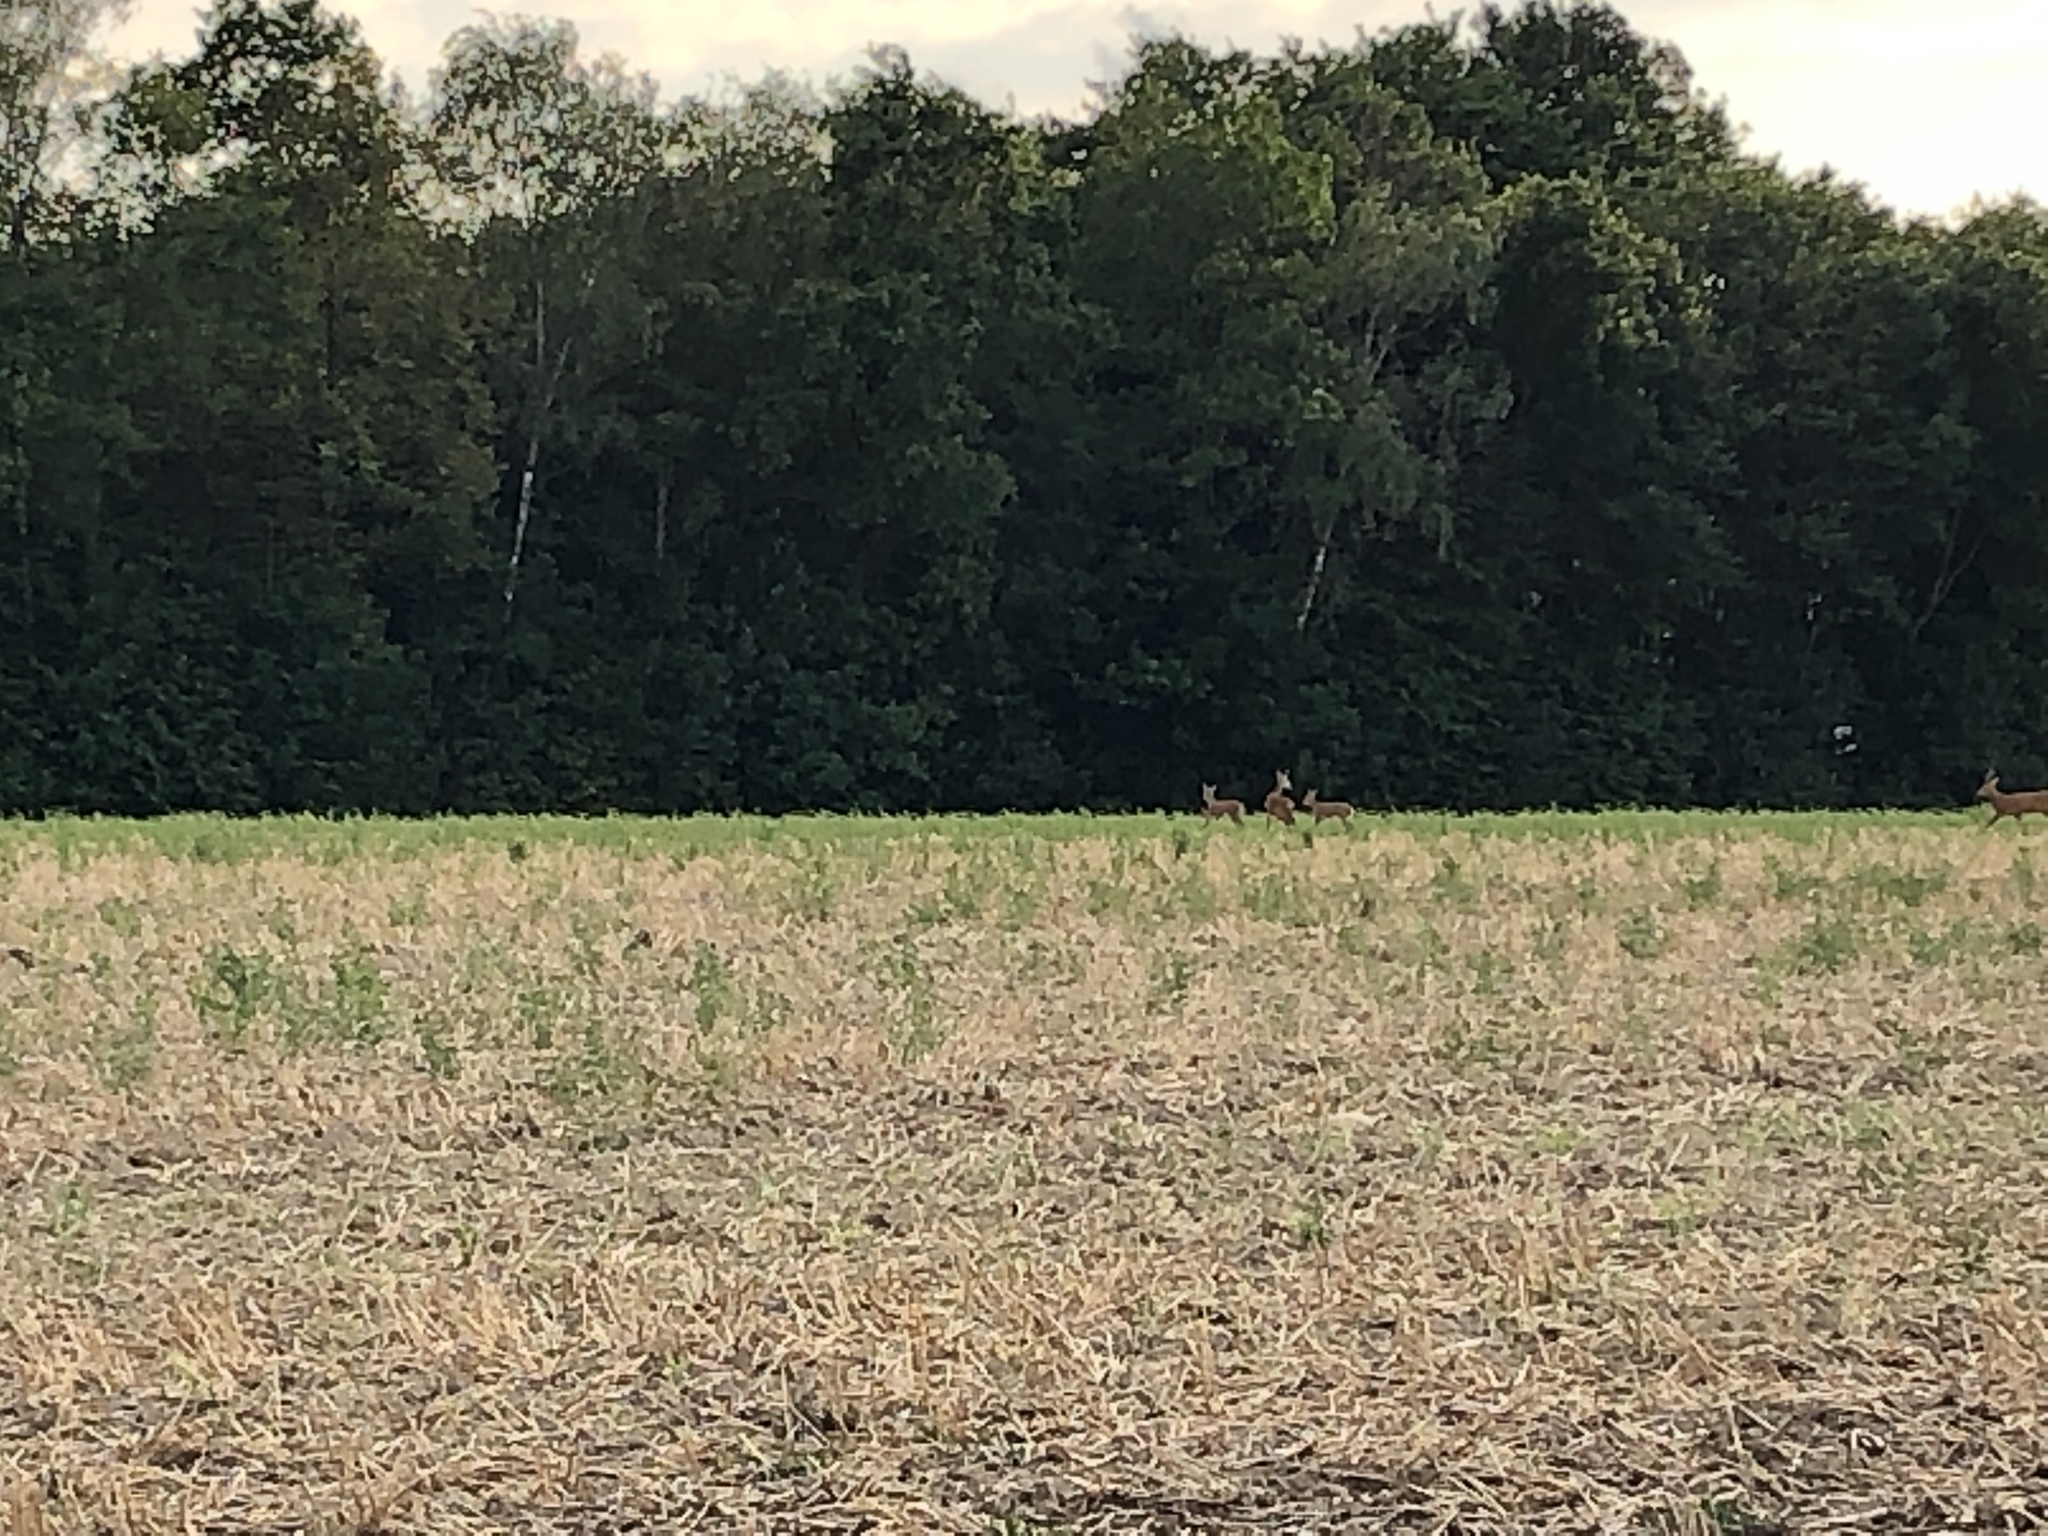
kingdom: Animalia
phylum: Chordata
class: Mammalia
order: Artiodactyla
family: Cervidae
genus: Capreolus
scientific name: Capreolus capreolus
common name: Western roe deer
